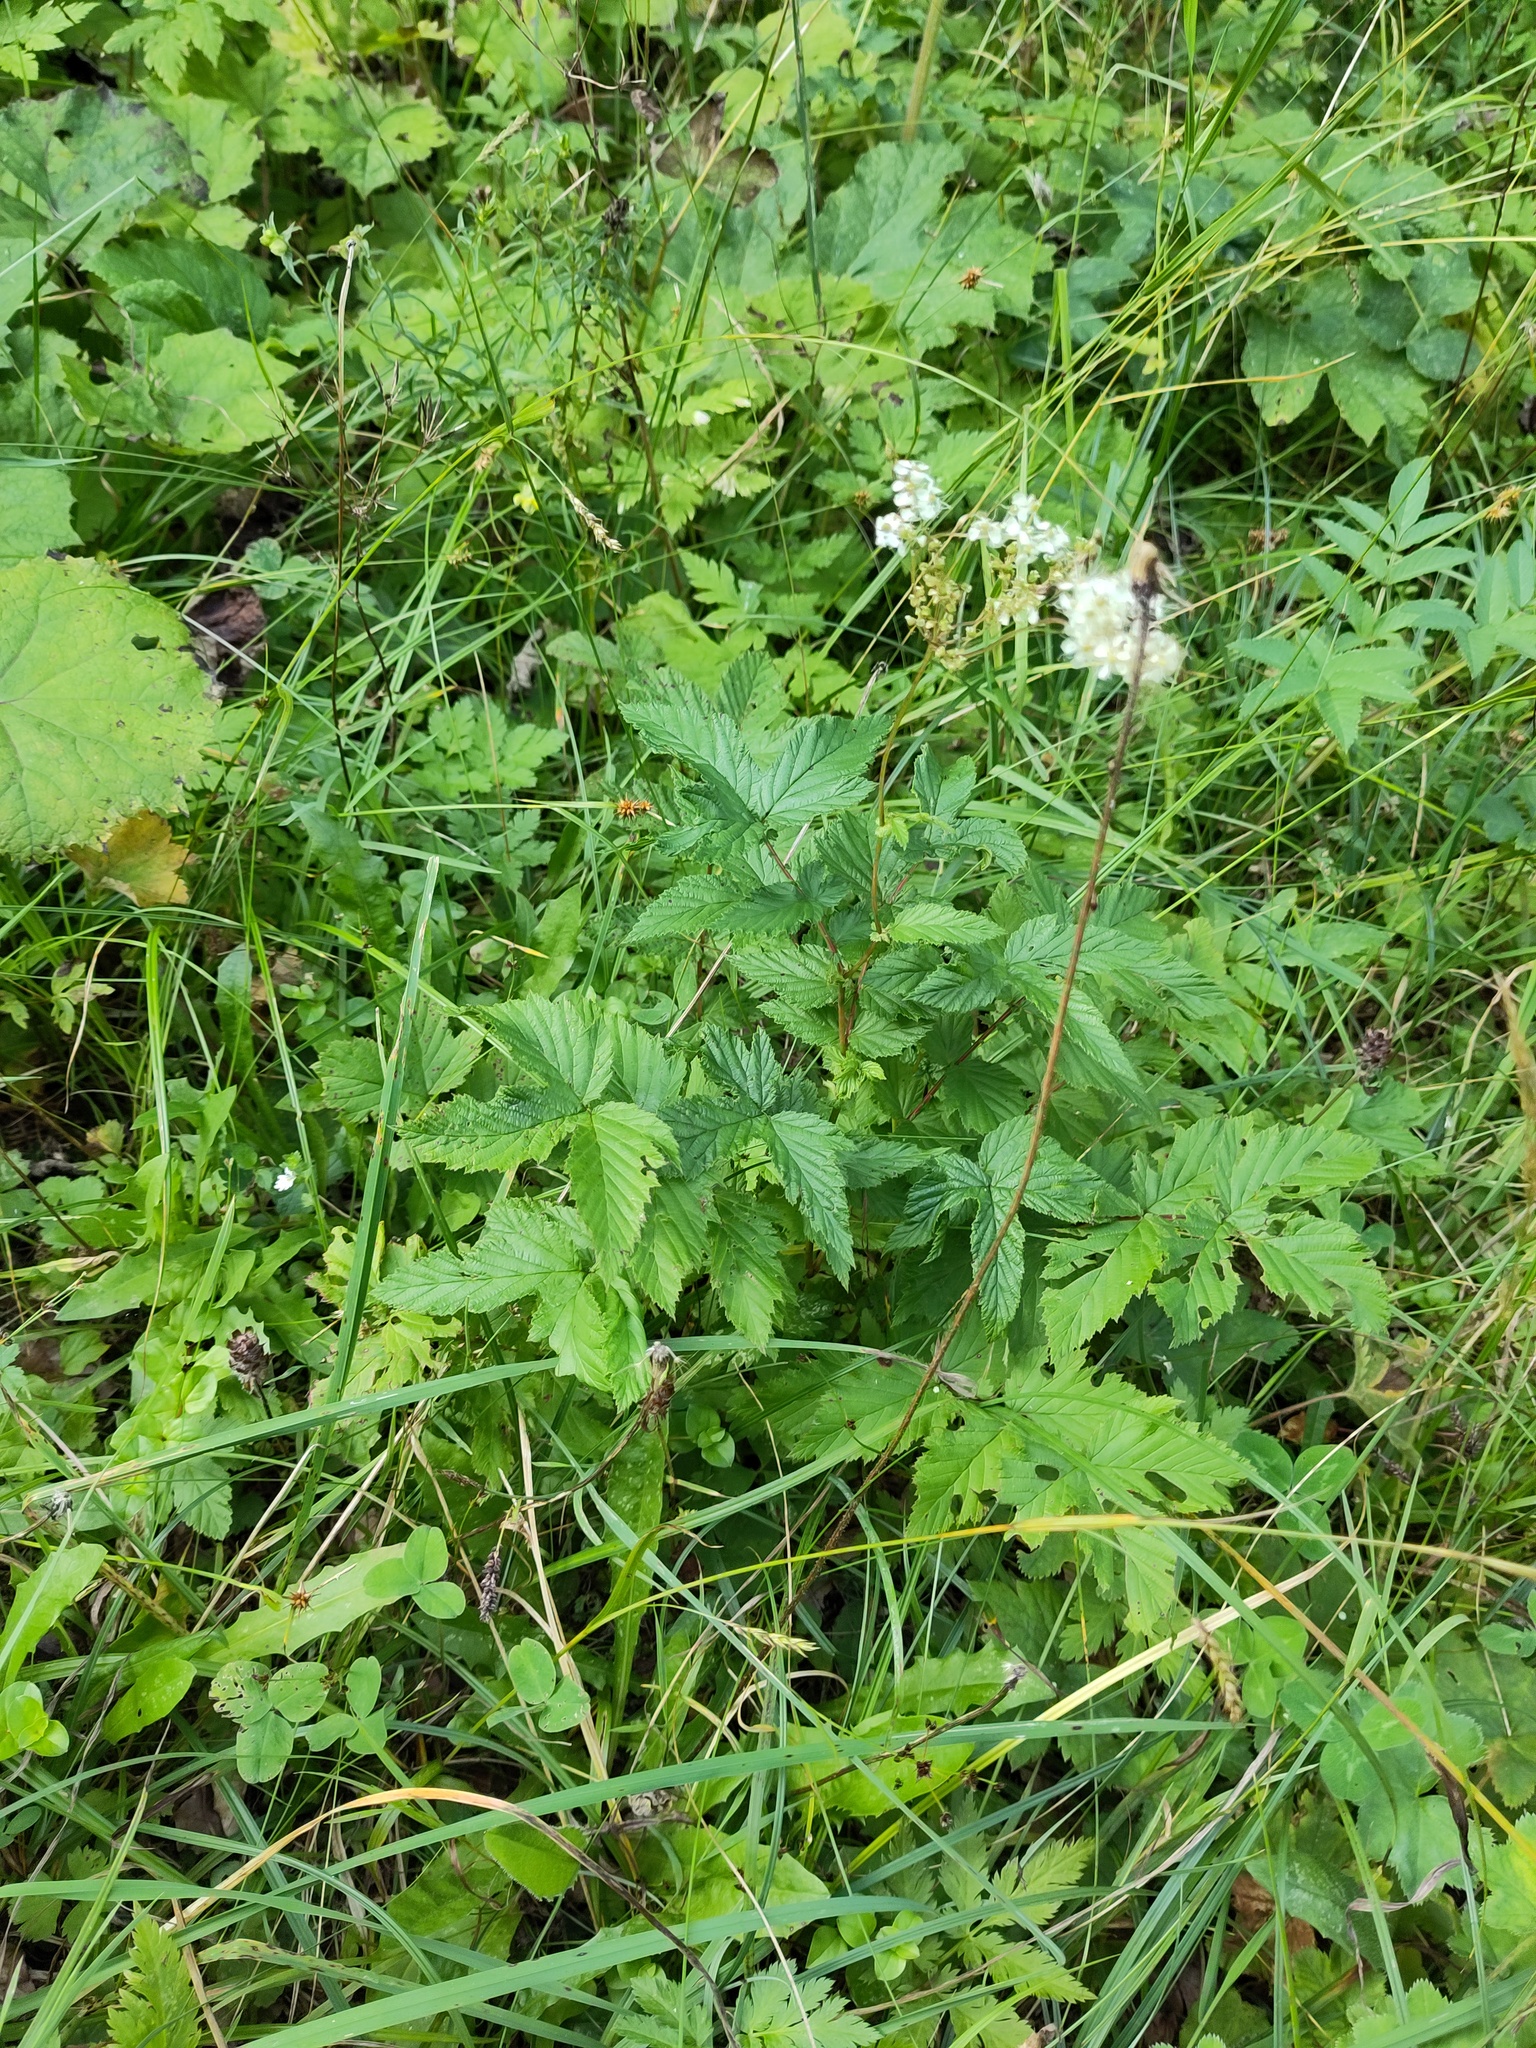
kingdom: Plantae
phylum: Tracheophyta
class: Magnoliopsida
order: Rosales
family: Rosaceae
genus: Filipendula
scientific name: Filipendula ulmaria
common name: Meadowsweet
